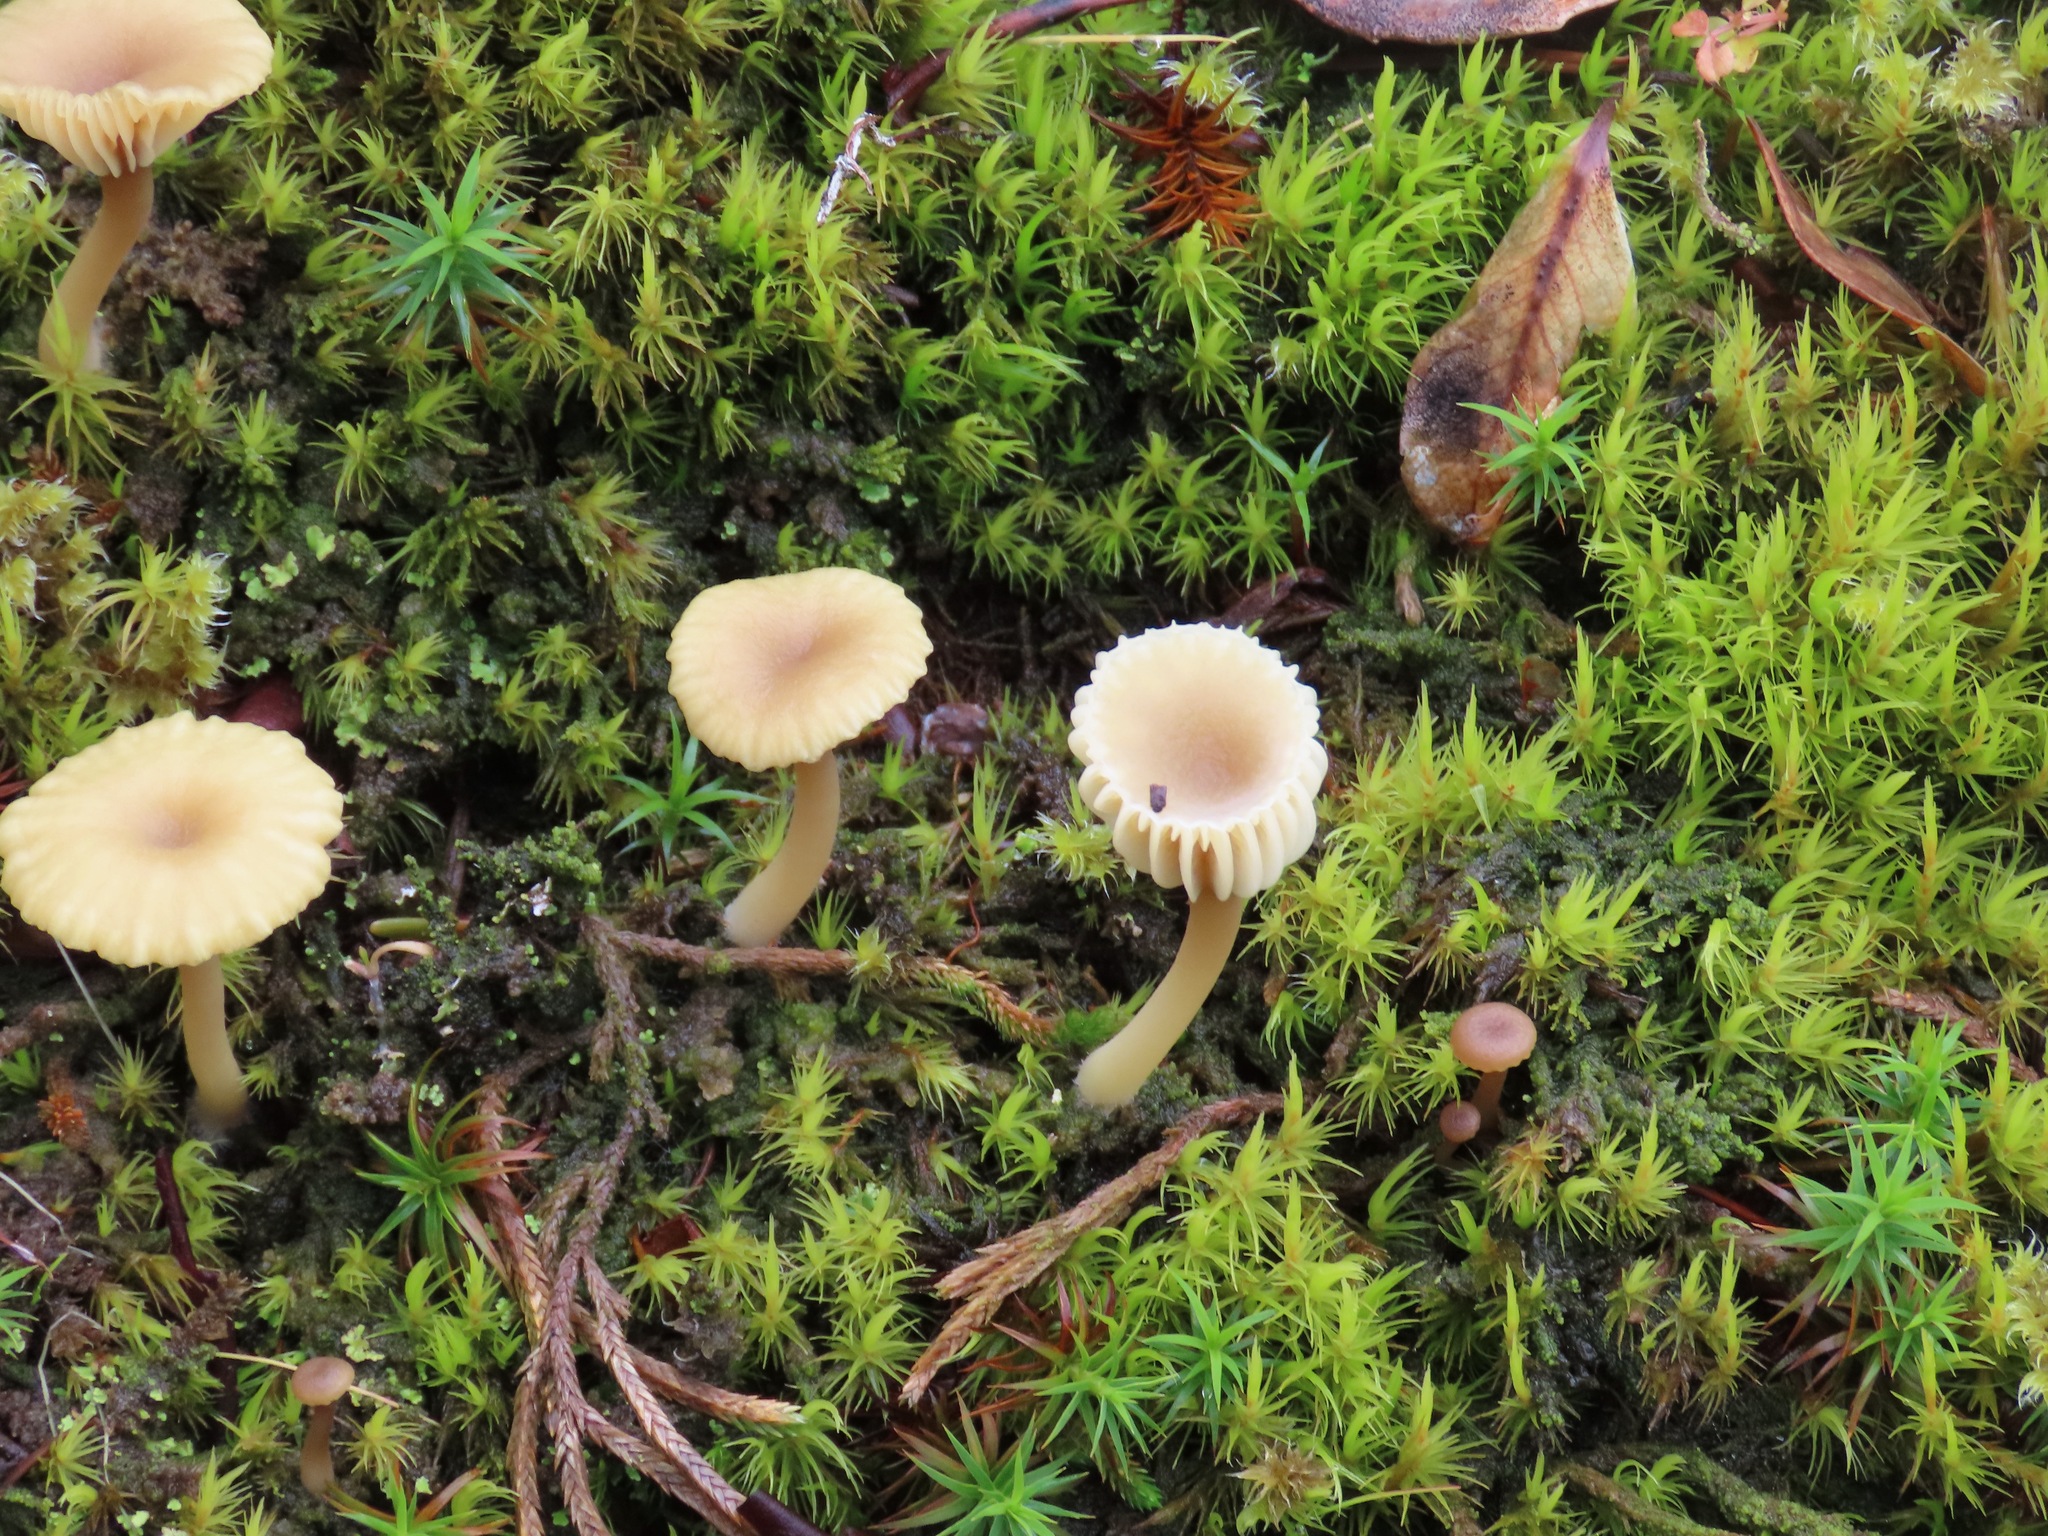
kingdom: Fungi
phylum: Basidiomycota
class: Agaricomycetes
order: Agaricales
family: Hygrophoraceae
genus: Lichenomphalia
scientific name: Lichenomphalia
